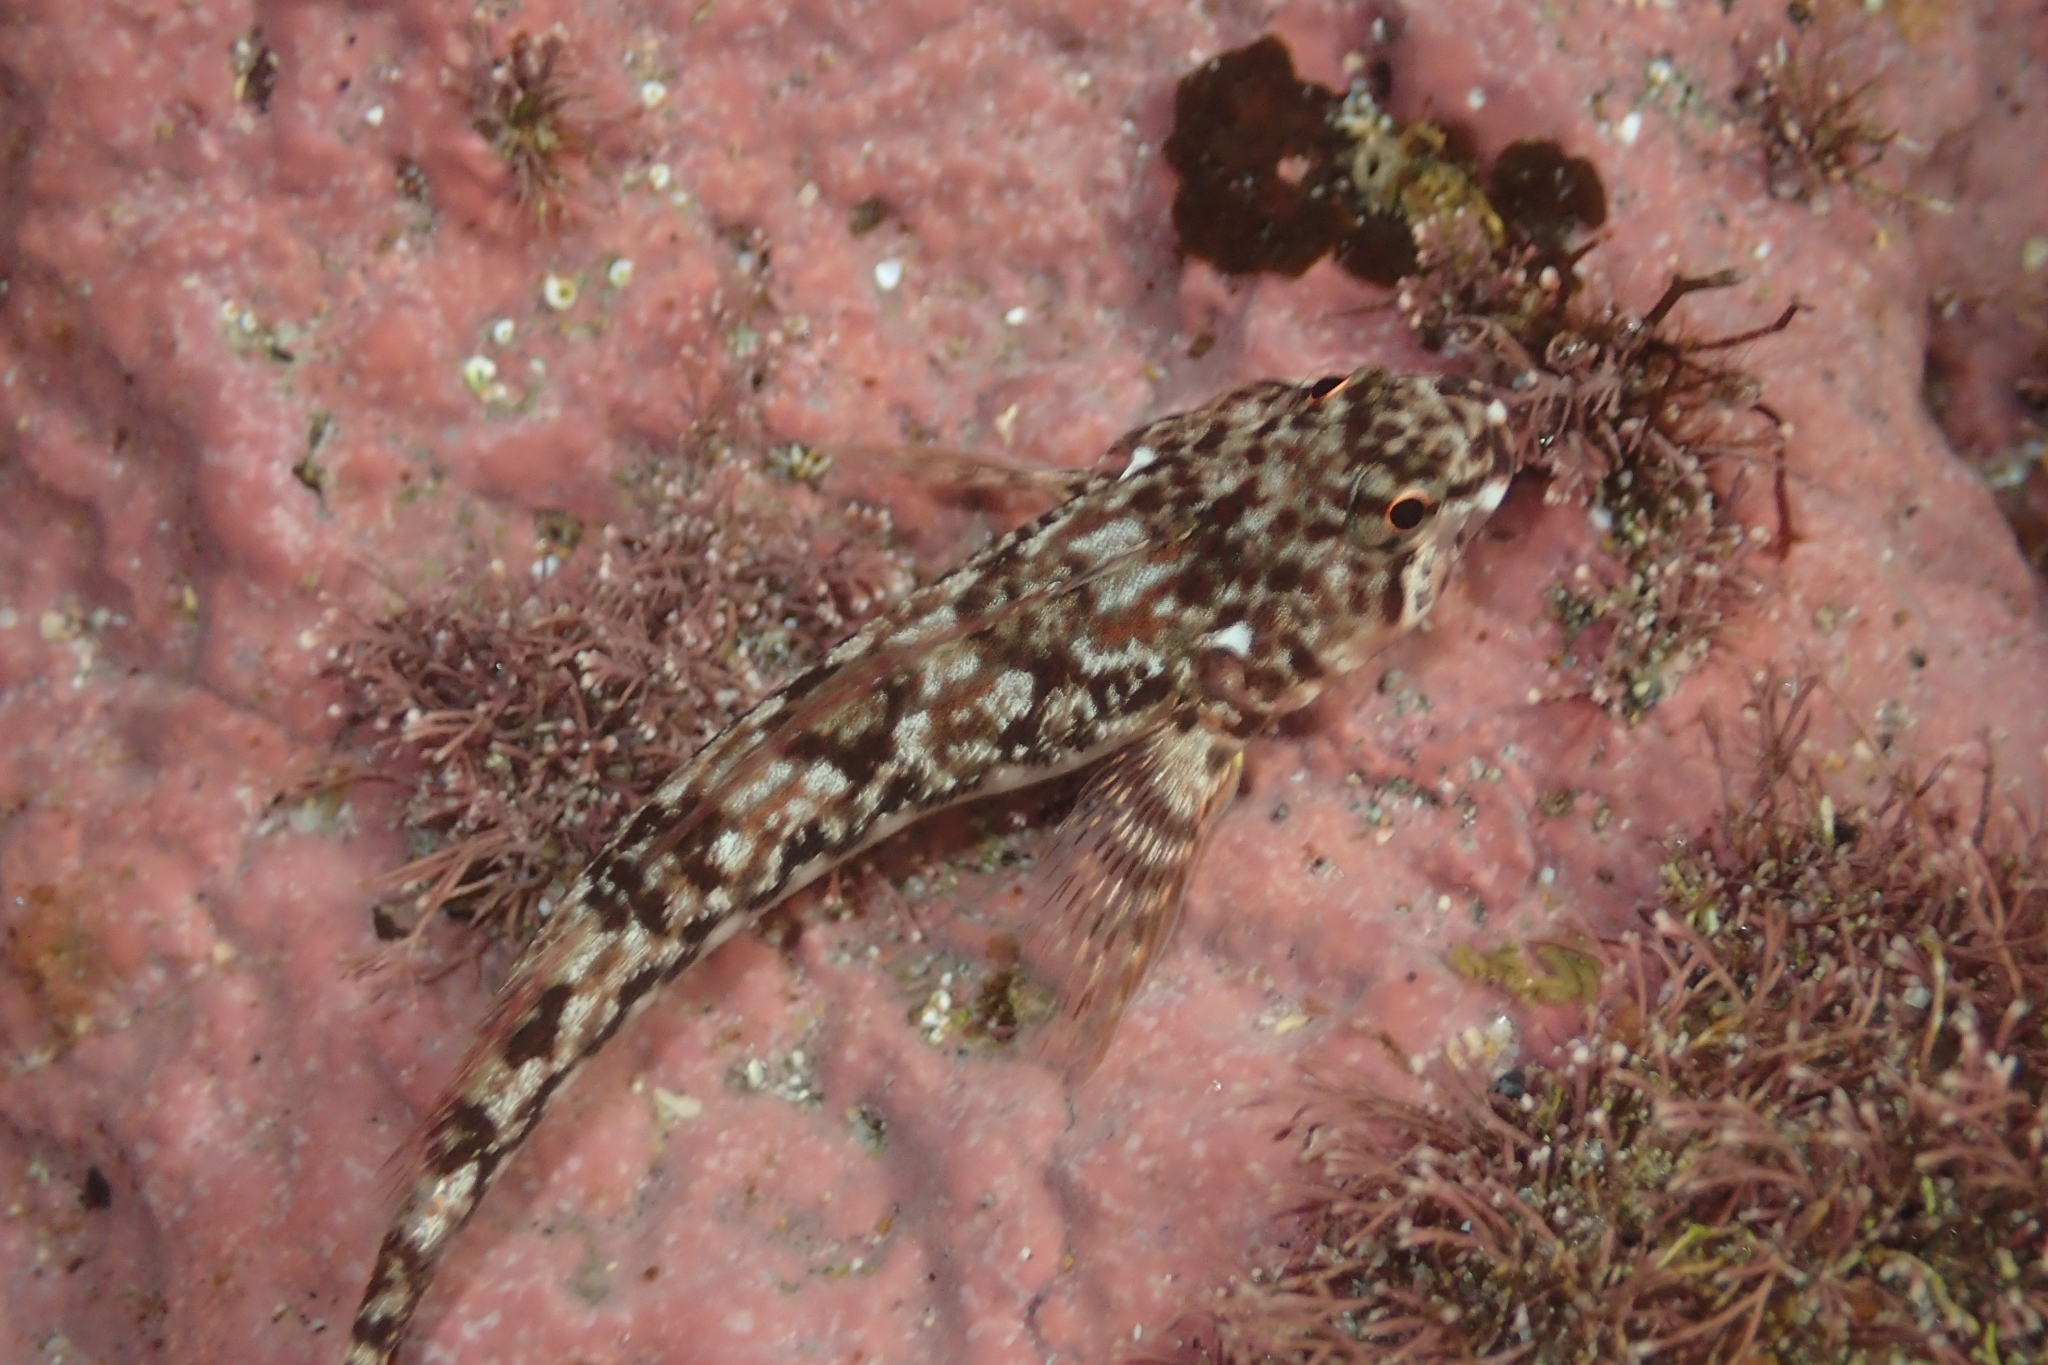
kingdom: Animalia
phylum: Chordata
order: Perciformes
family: Tripterygiidae
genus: Bellapiscis
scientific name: Bellapiscis medius
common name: Twister
